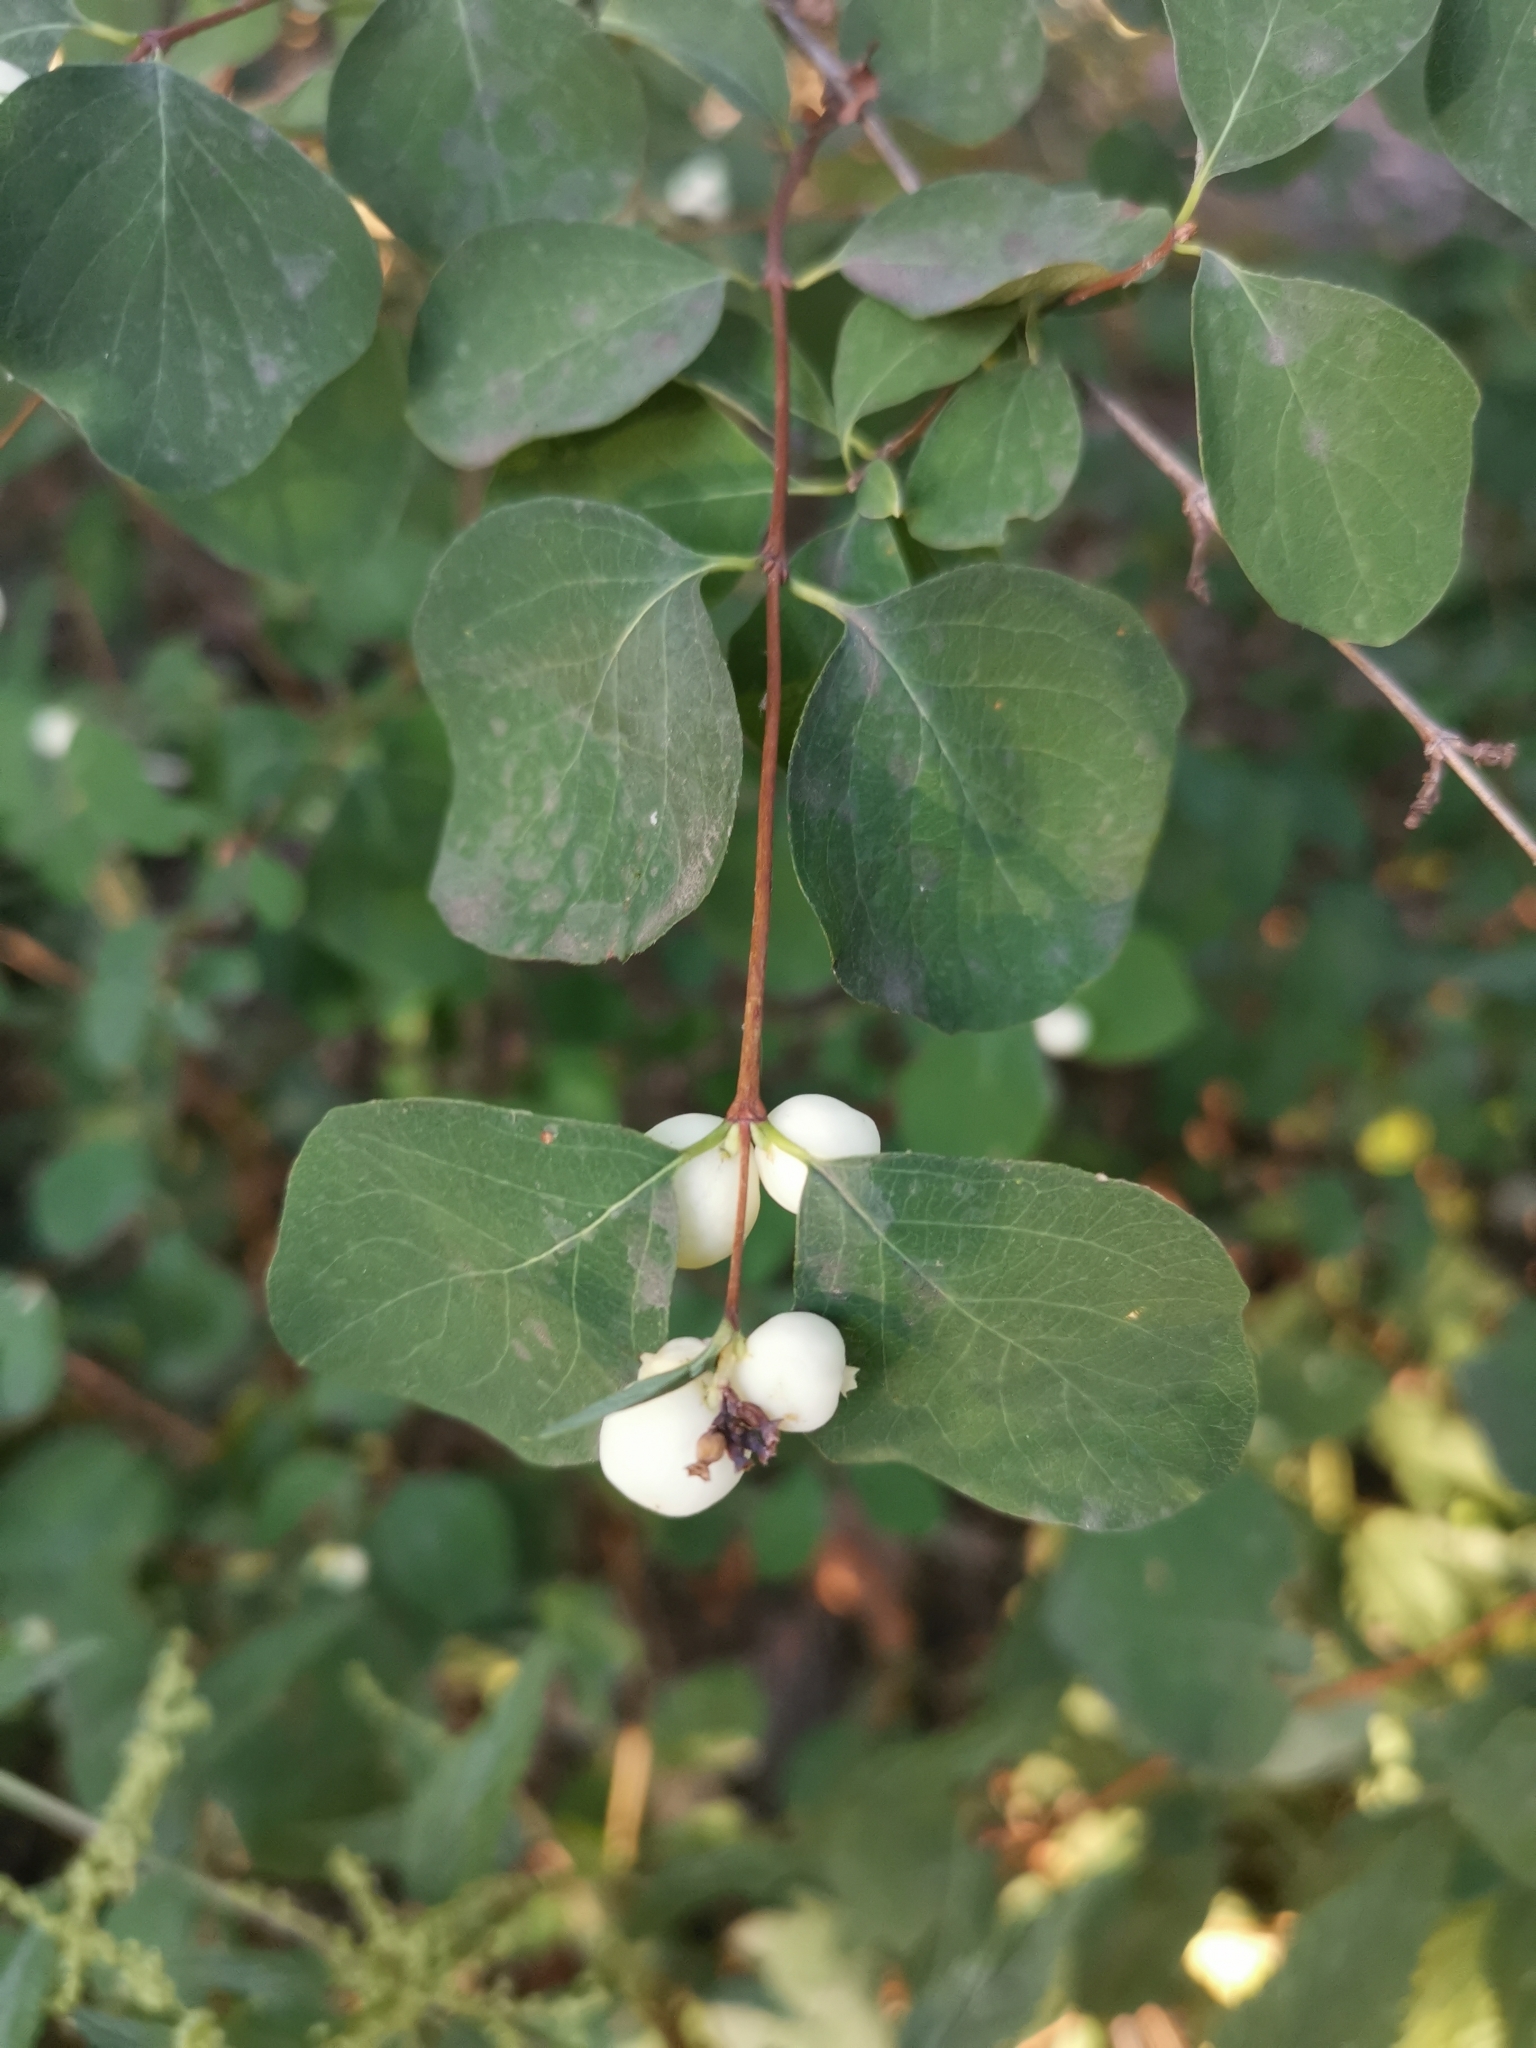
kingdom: Plantae
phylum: Tracheophyta
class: Magnoliopsida
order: Dipsacales
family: Caprifoliaceae
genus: Symphoricarpos
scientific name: Symphoricarpos albus
